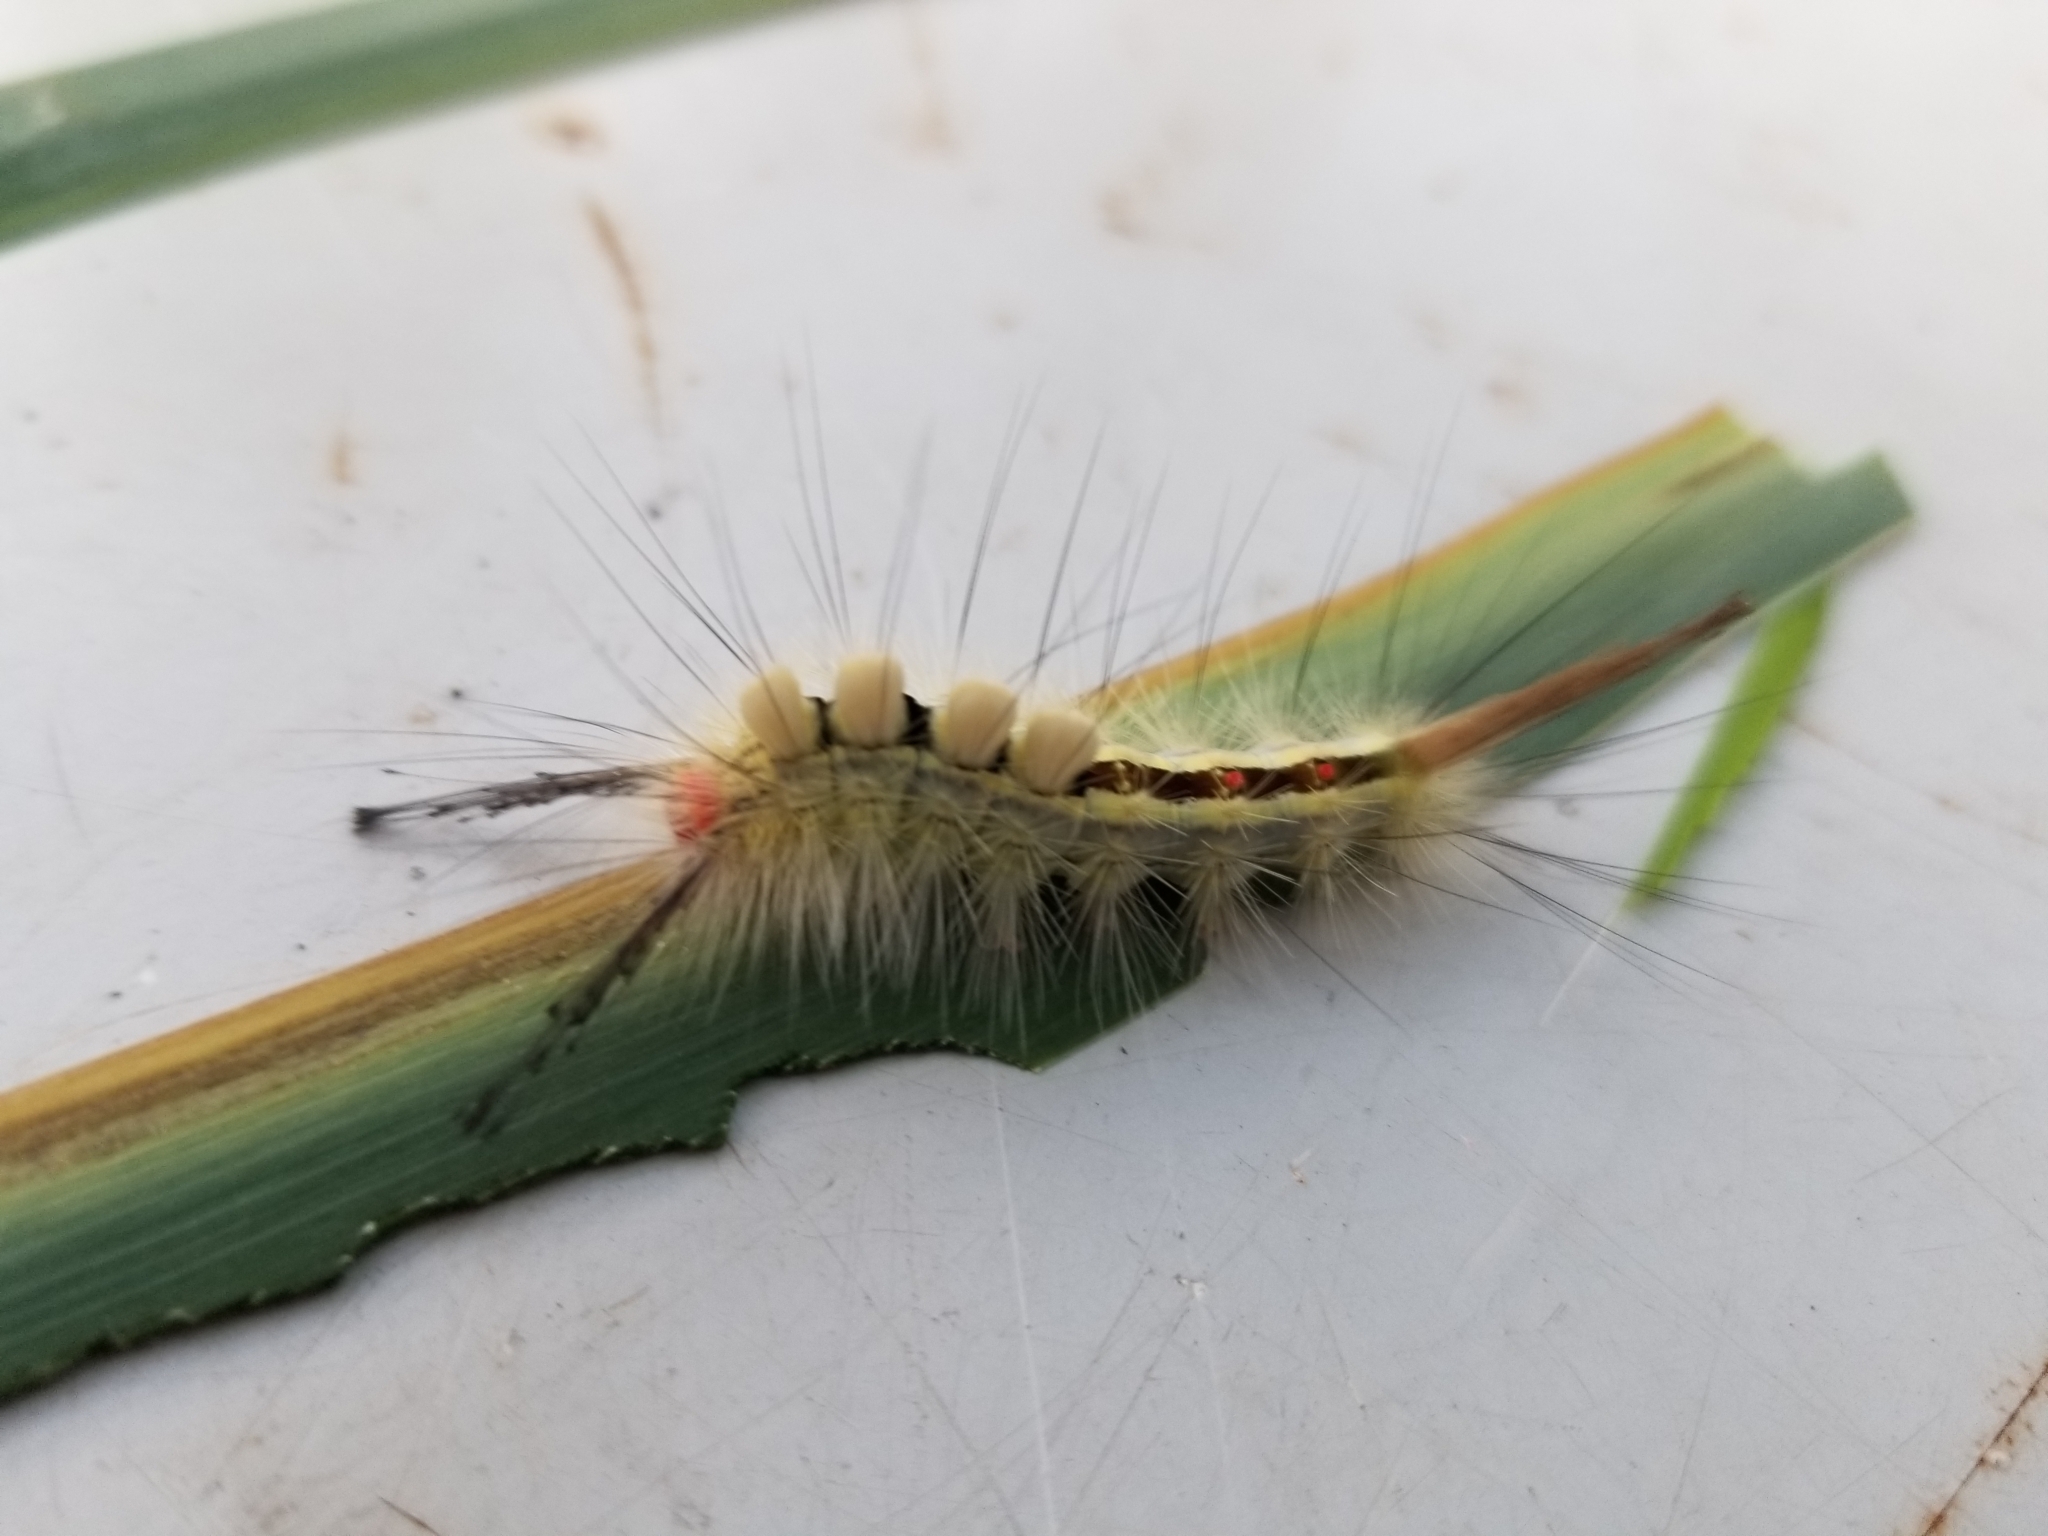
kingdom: Animalia
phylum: Arthropoda
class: Insecta
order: Lepidoptera
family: Erebidae
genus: Orgyia
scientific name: Orgyia leucostigma
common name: White-marked tussock moth
